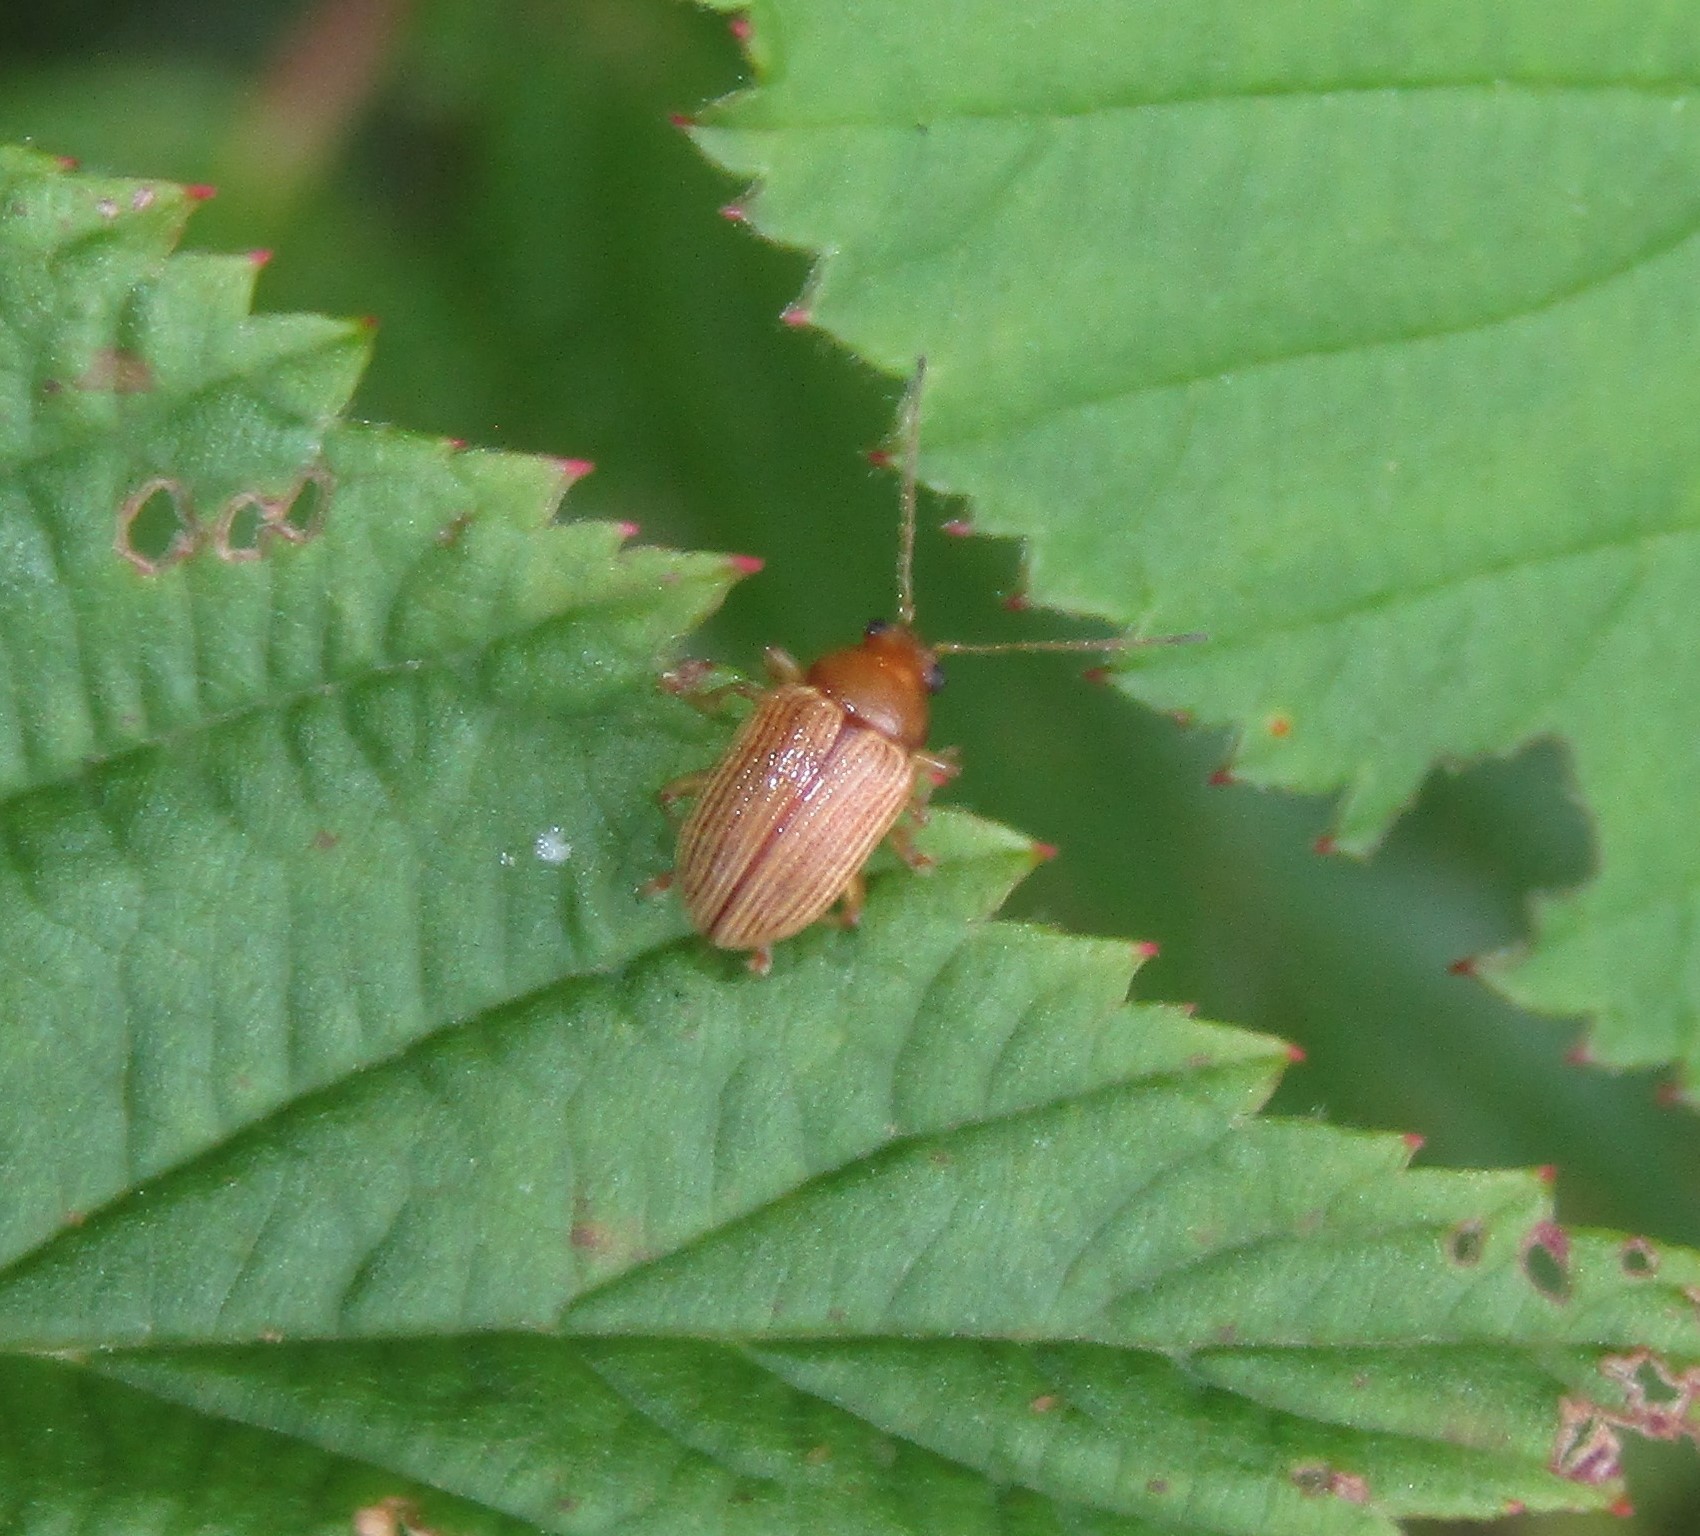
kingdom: Animalia
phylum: Arthropoda
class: Insecta
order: Coleoptera
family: Chrysomelidae
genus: Colaspis
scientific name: Colaspis brunnea
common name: Grape colaspis
